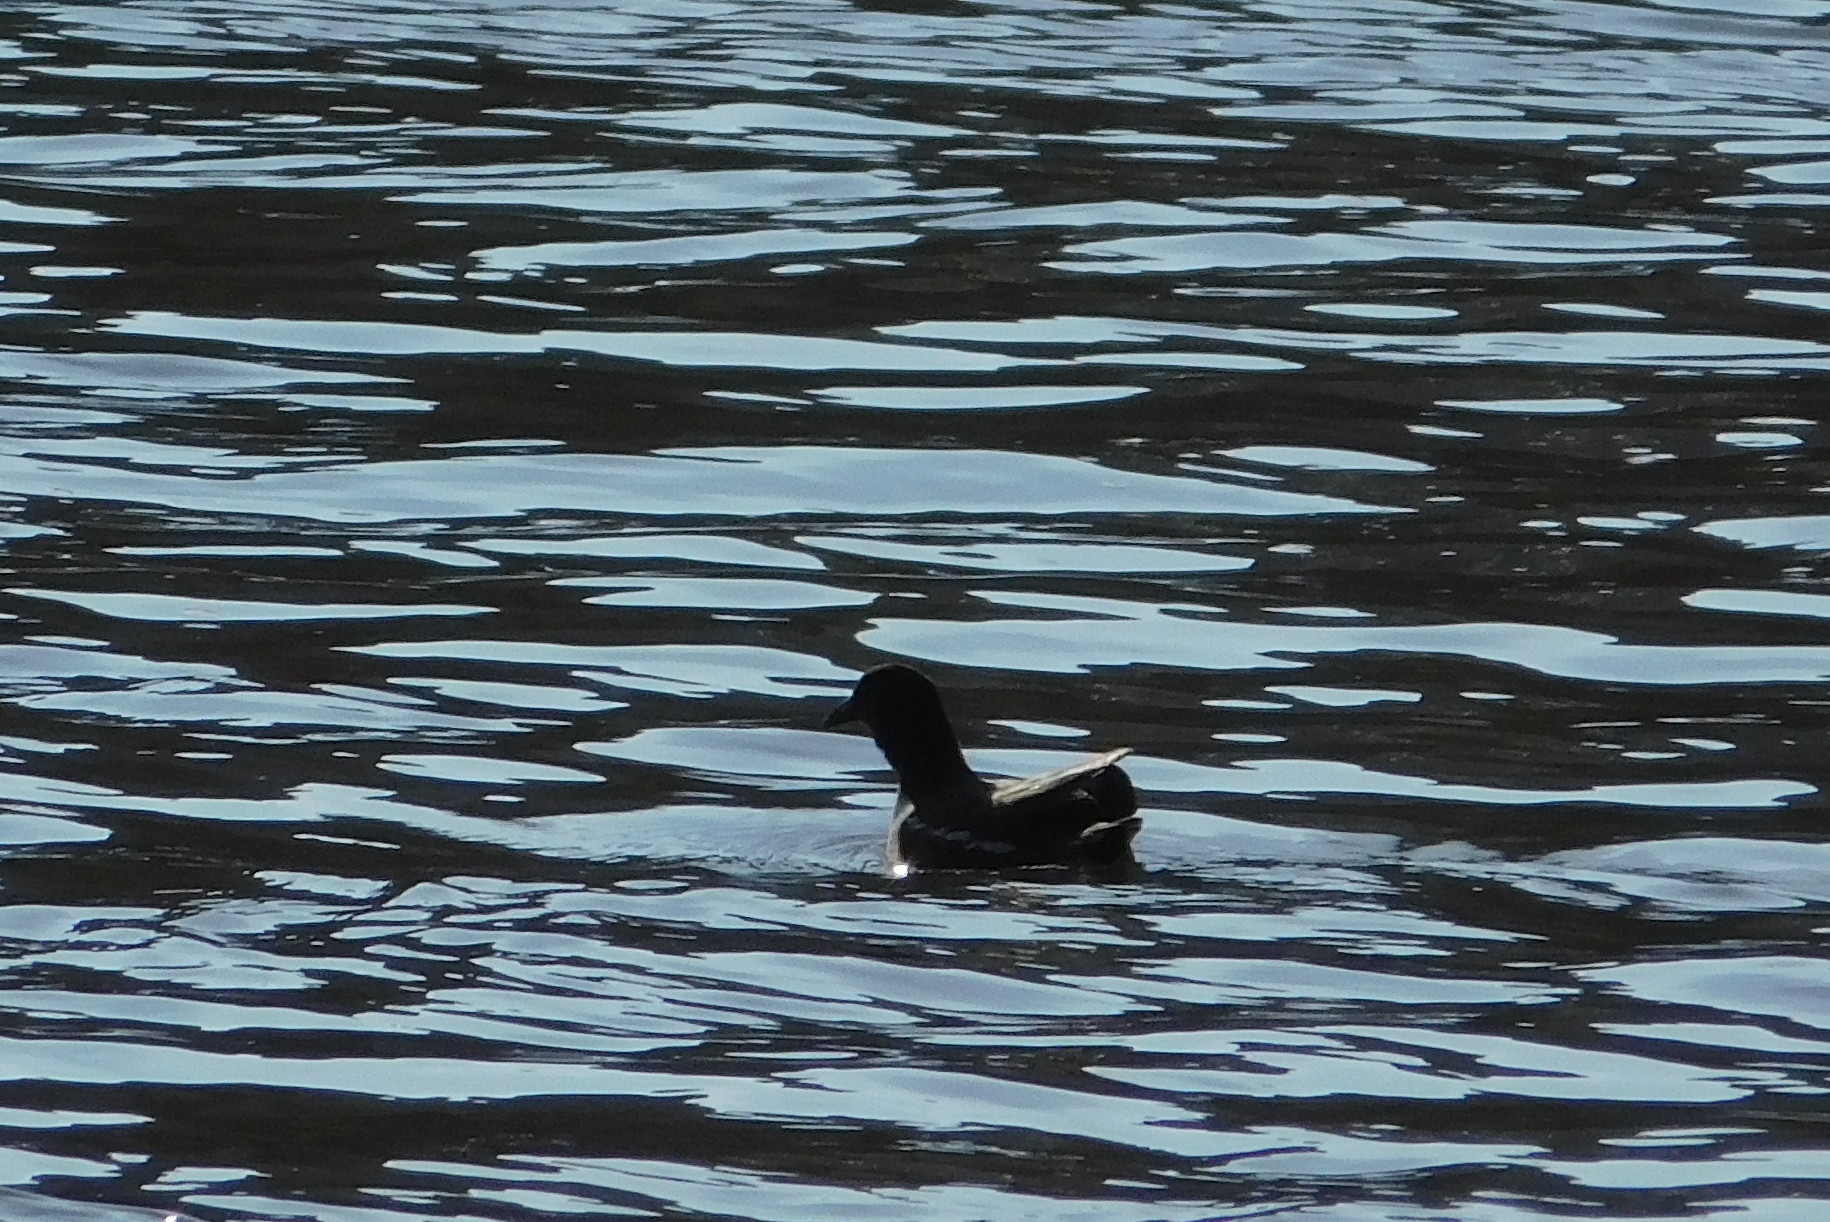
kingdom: Animalia
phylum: Chordata
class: Aves
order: Gruiformes
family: Rallidae
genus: Gallinula
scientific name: Gallinula chloropus
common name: Common moorhen
